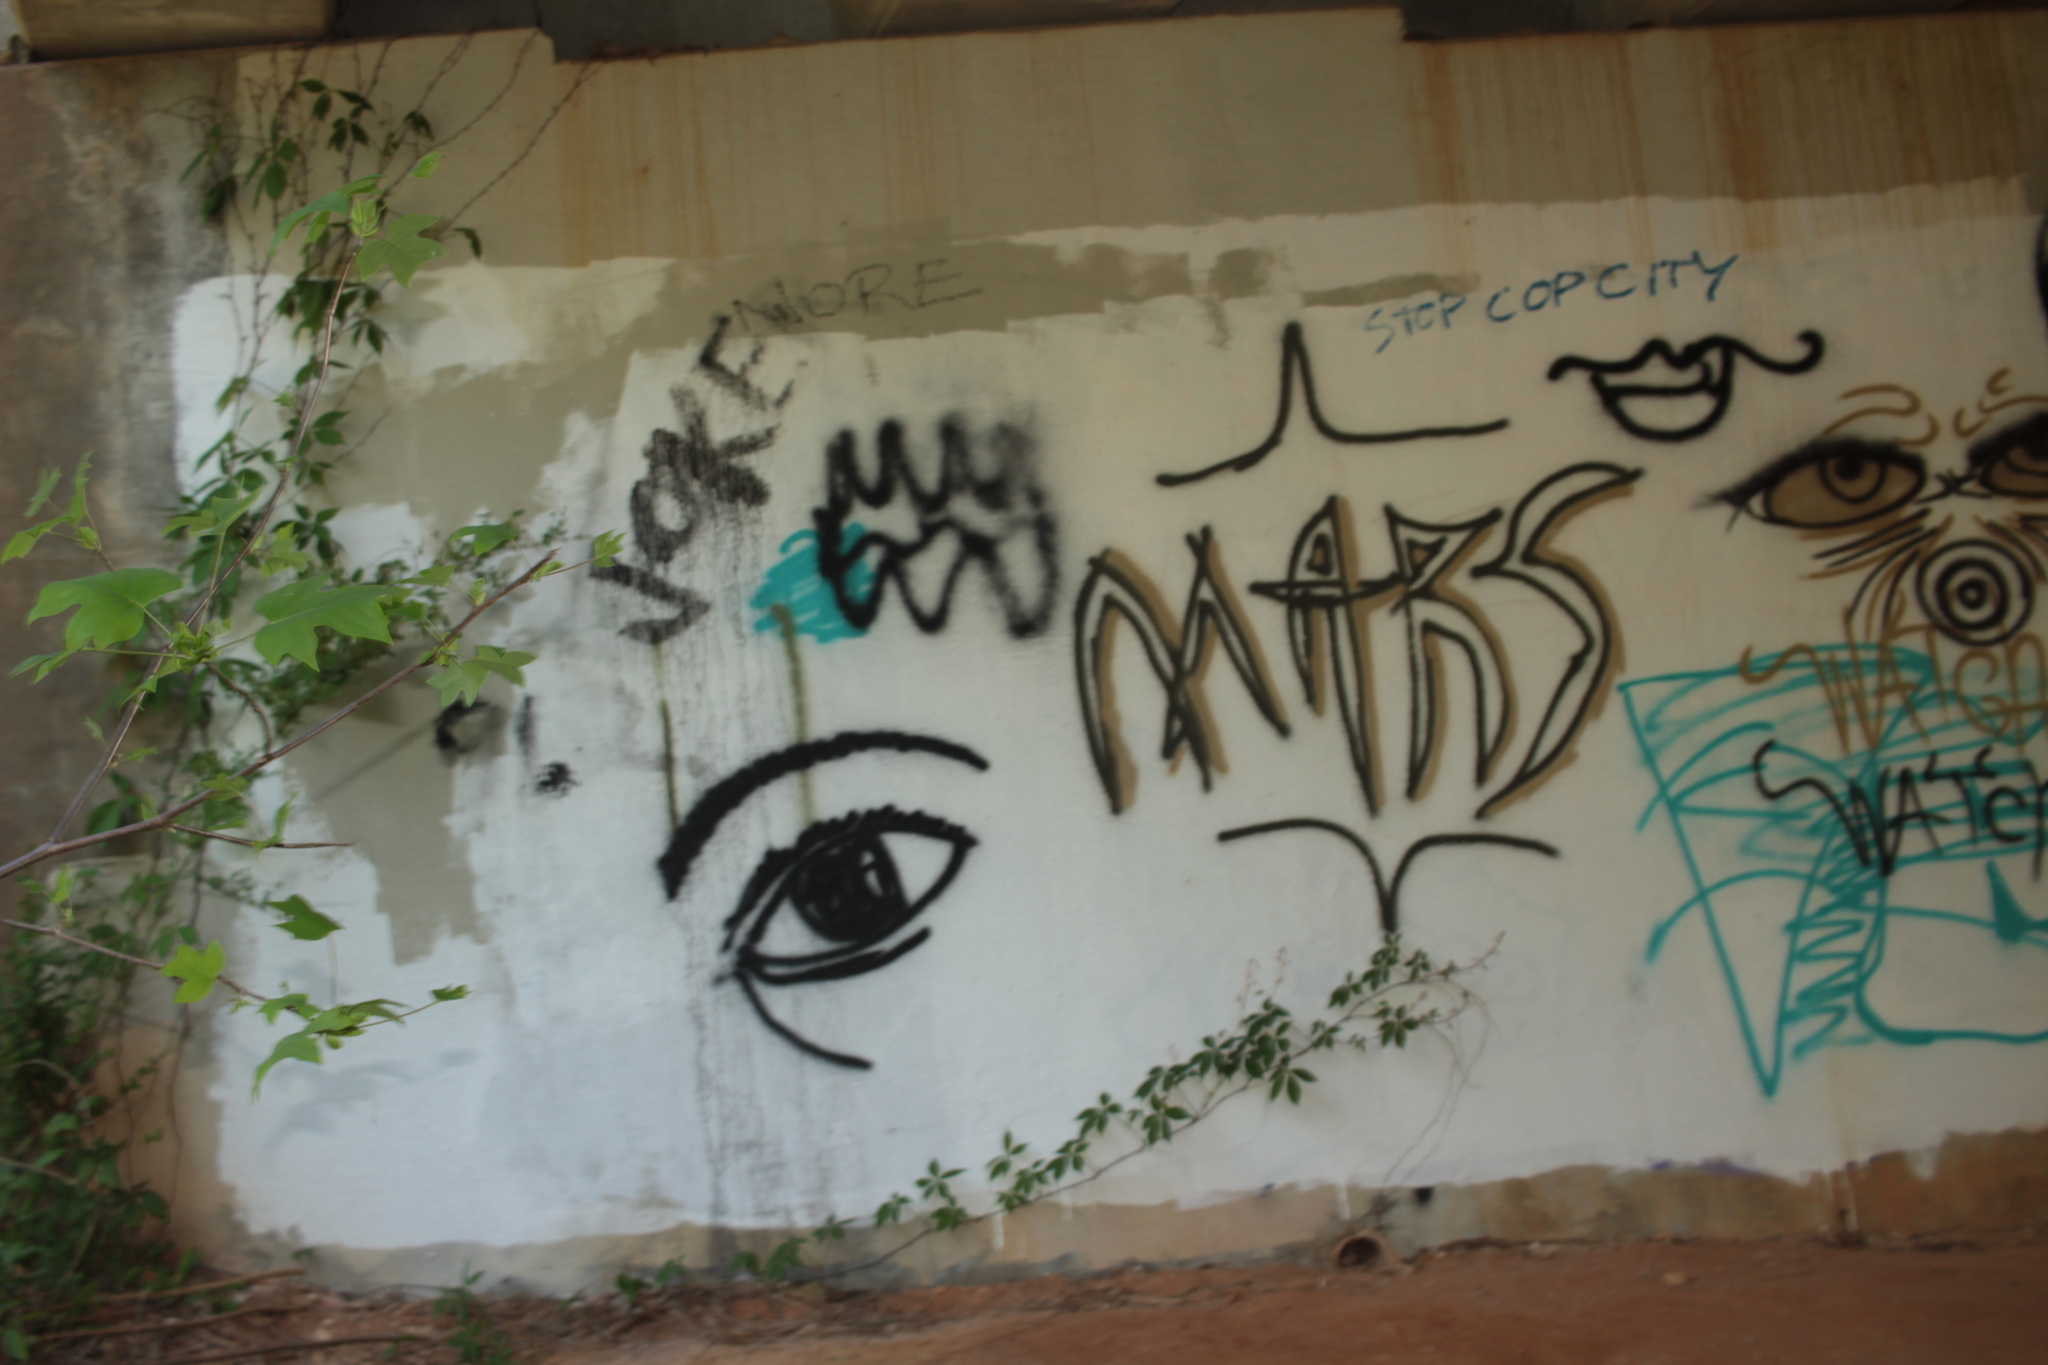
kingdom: Plantae
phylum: Tracheophyta
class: Magnoliopsida
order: Magnoliales
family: Magnoliaceae
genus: Liriodendron
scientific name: Liriodendron tulipifera
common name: Tulip tree
